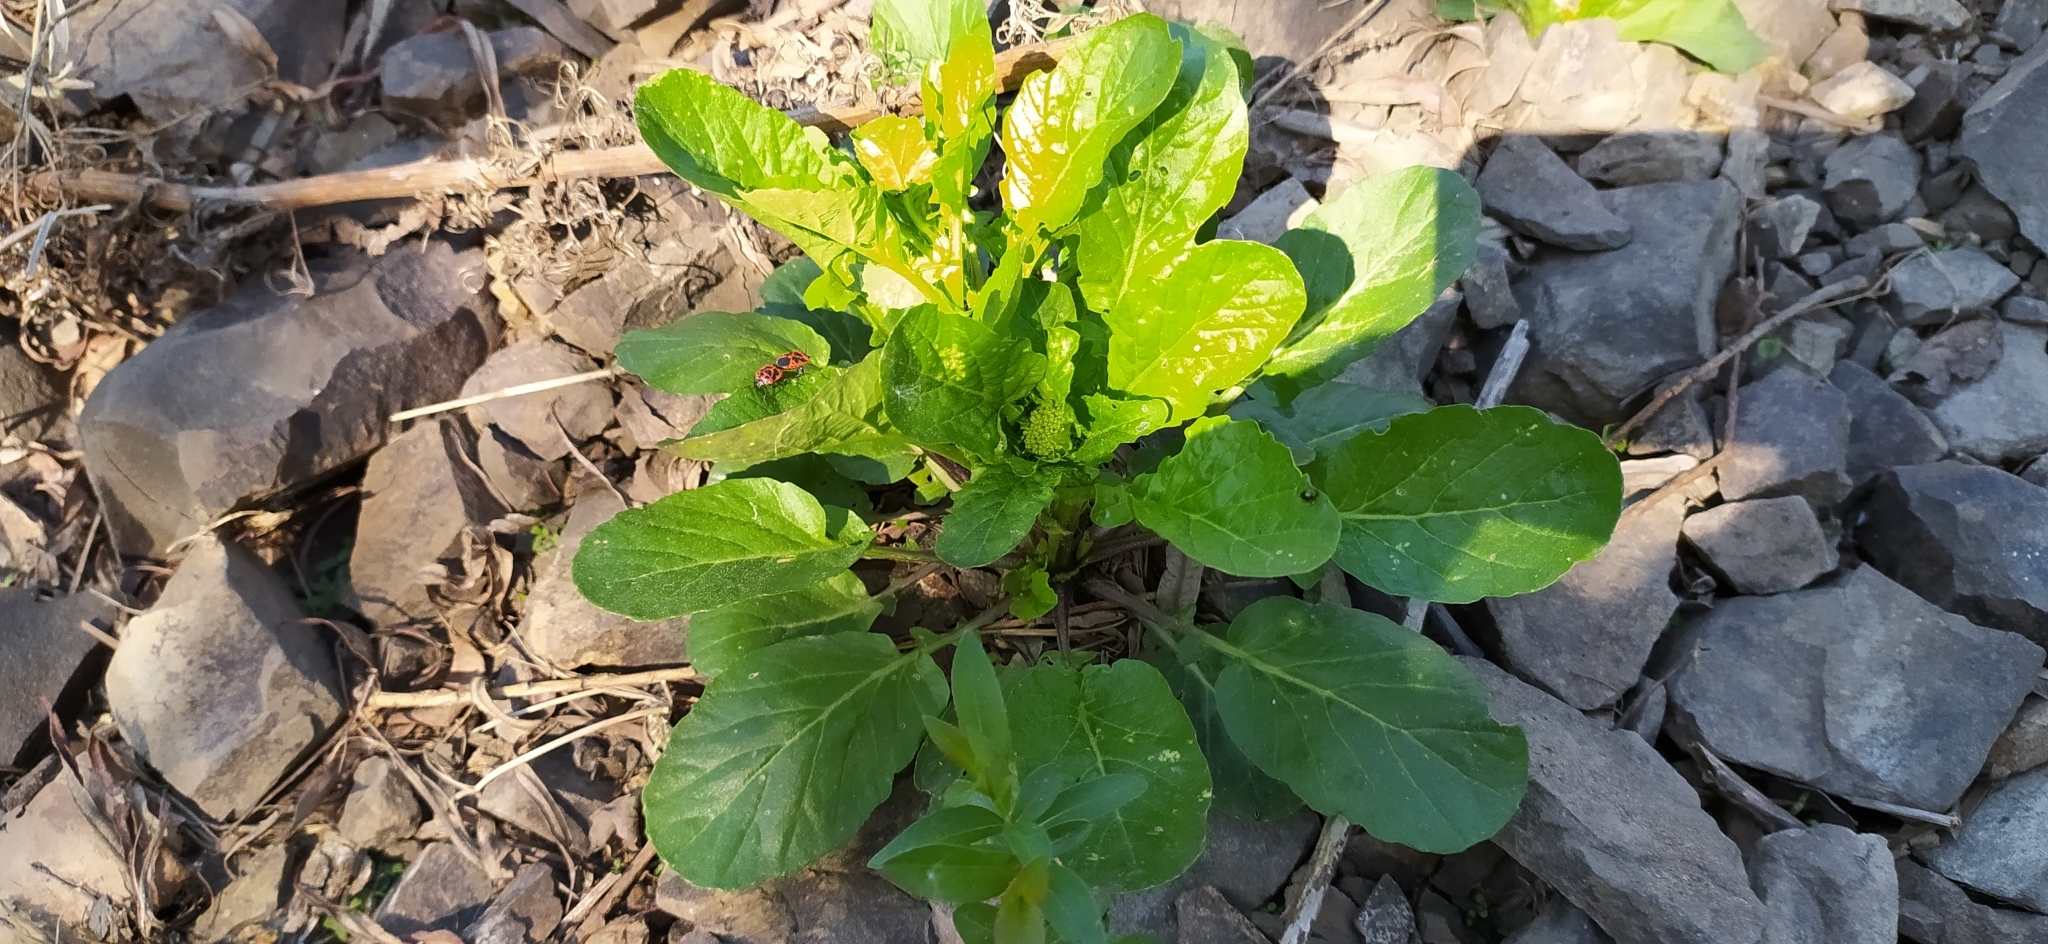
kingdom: Plantae
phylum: Tracheophyta
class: Magnoliopsida
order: Brassicales
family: Brassicaceae
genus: Barbarea
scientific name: Barbarea vulgaris
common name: Cressy-greens
